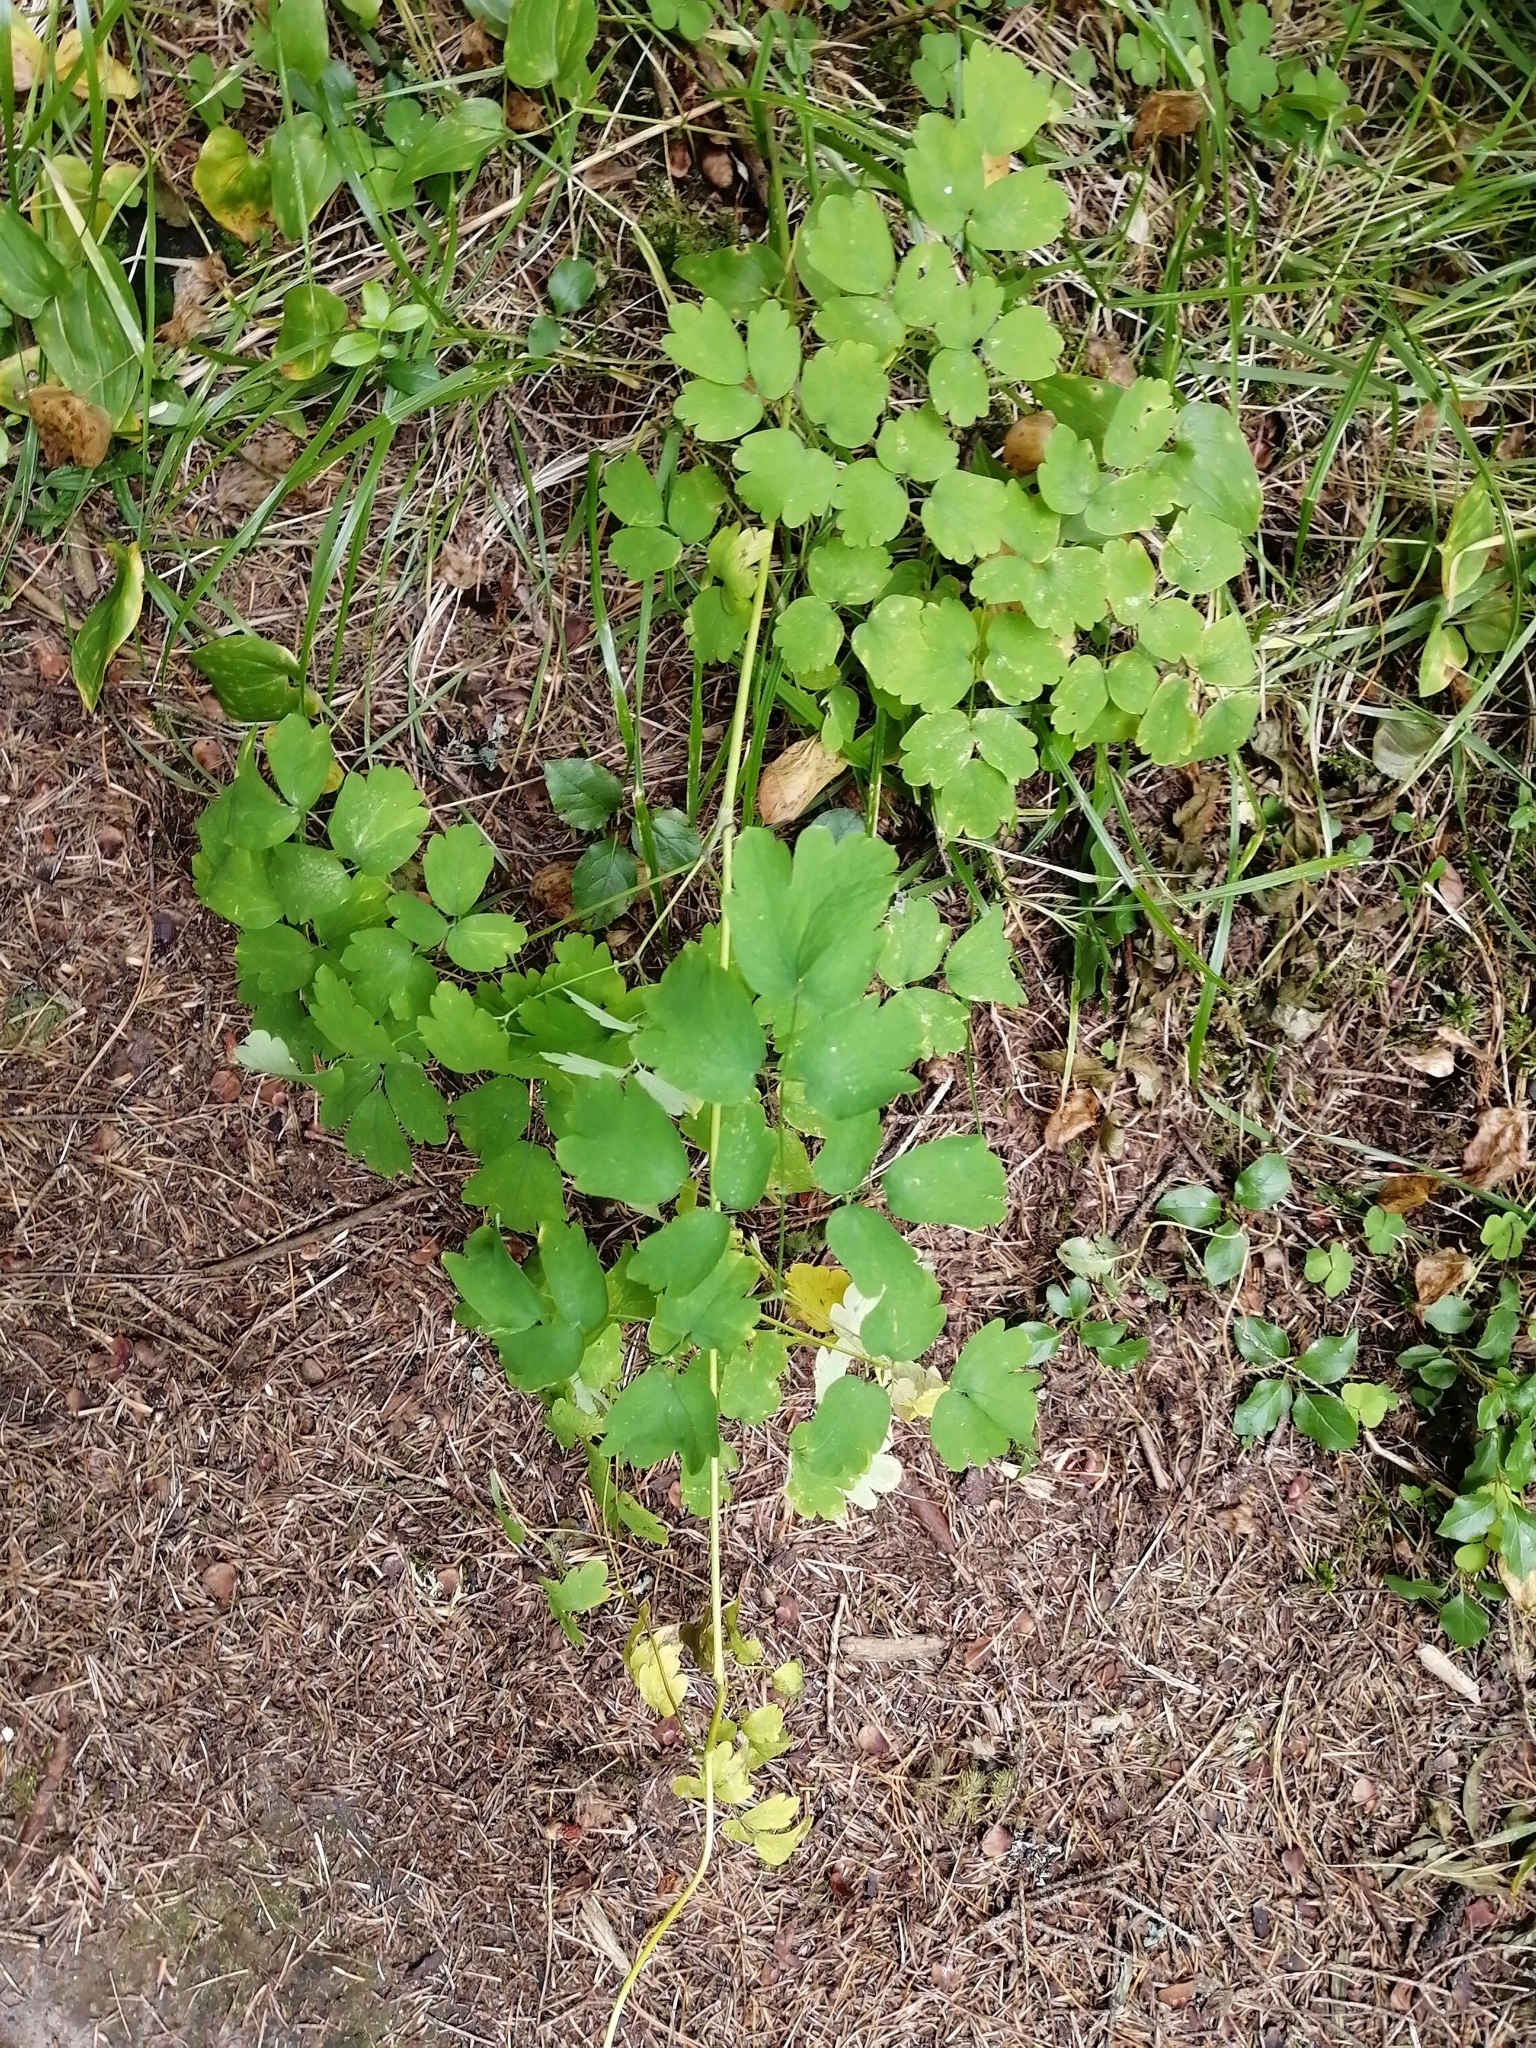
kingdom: Plantae
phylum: Tracheophyta
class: Magnoliopsida
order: Ranunculales
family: Ranunculaceae
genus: Thalictrum
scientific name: Thalictrum minus
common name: Lesser meadow-rue
